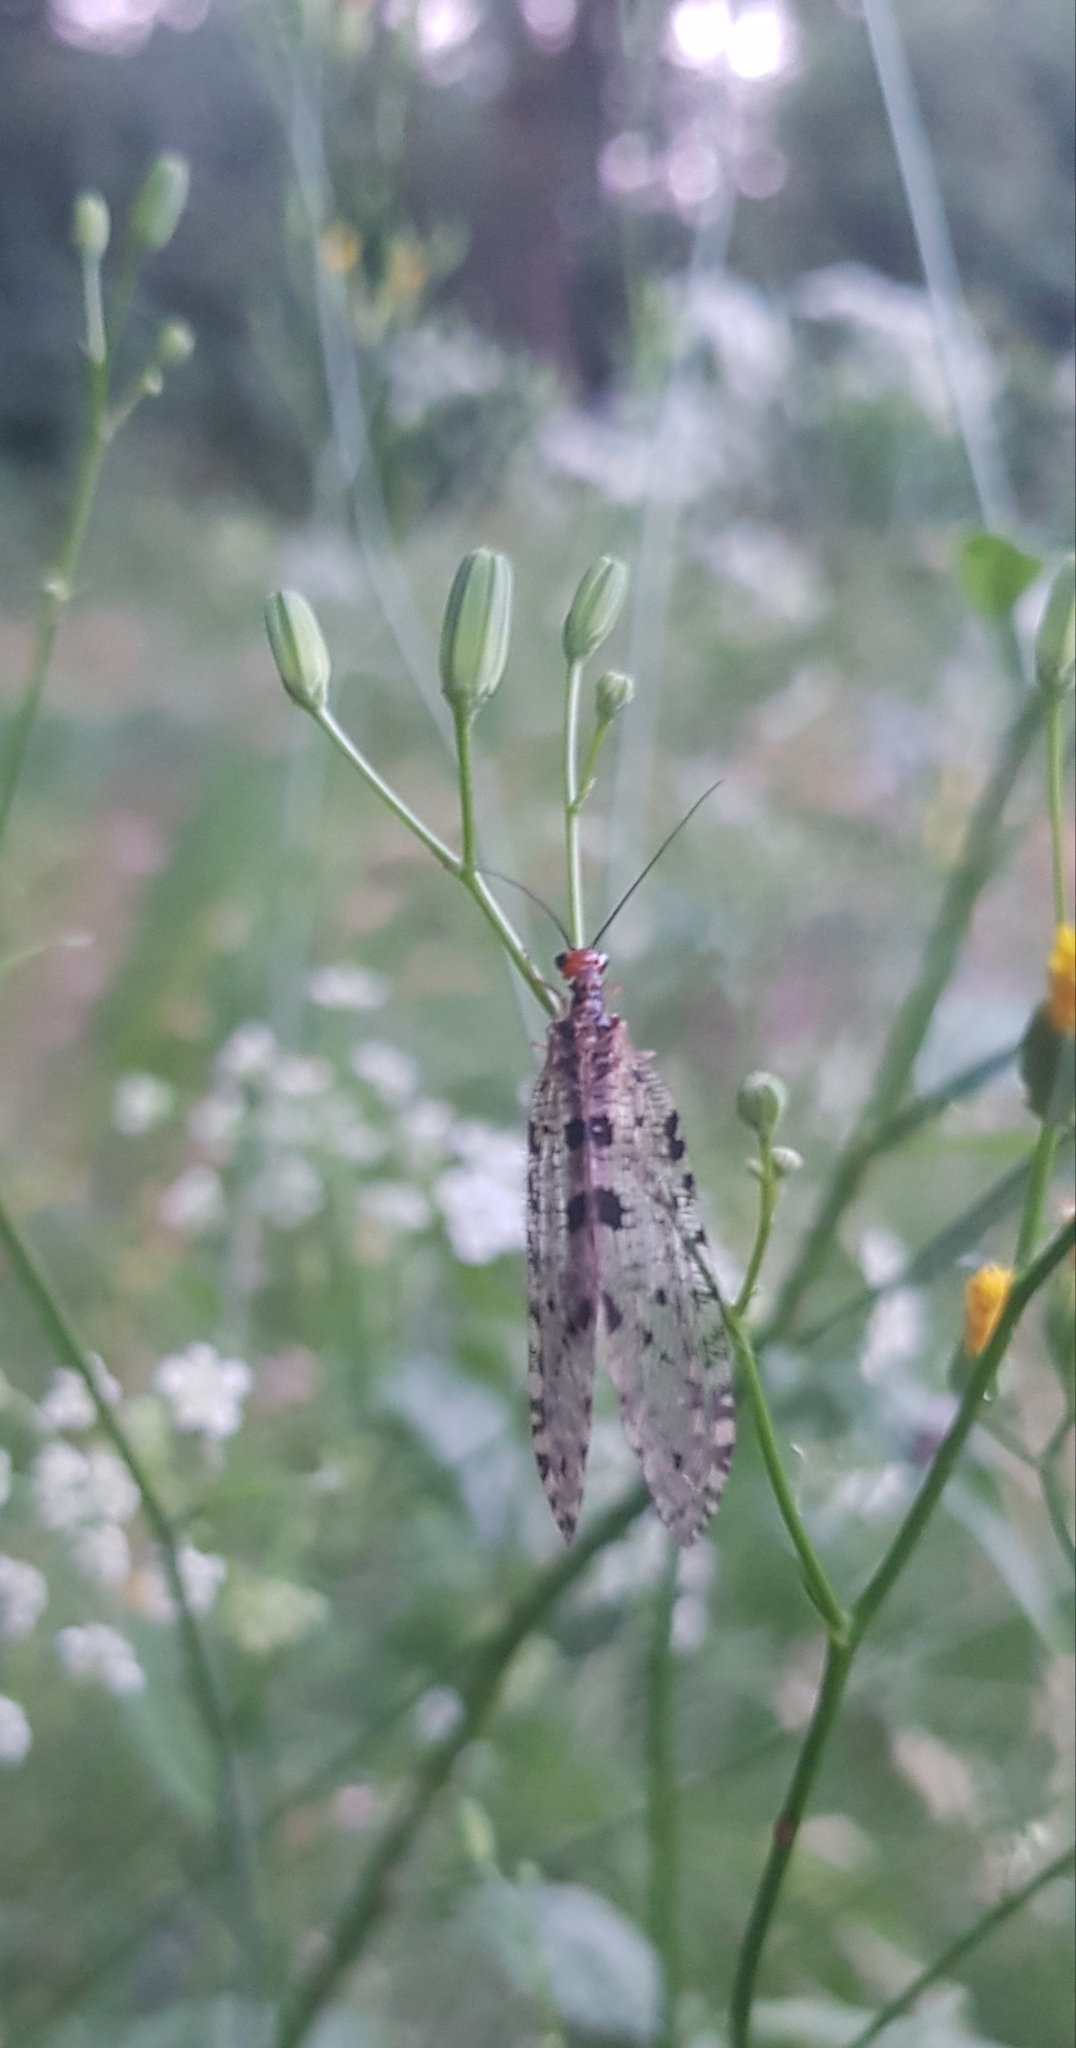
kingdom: Animalia
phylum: Arthropoda
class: Insecta
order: Neuroptera
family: Osmylidae
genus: Osmylus
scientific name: Osmylus fulvicephalus
